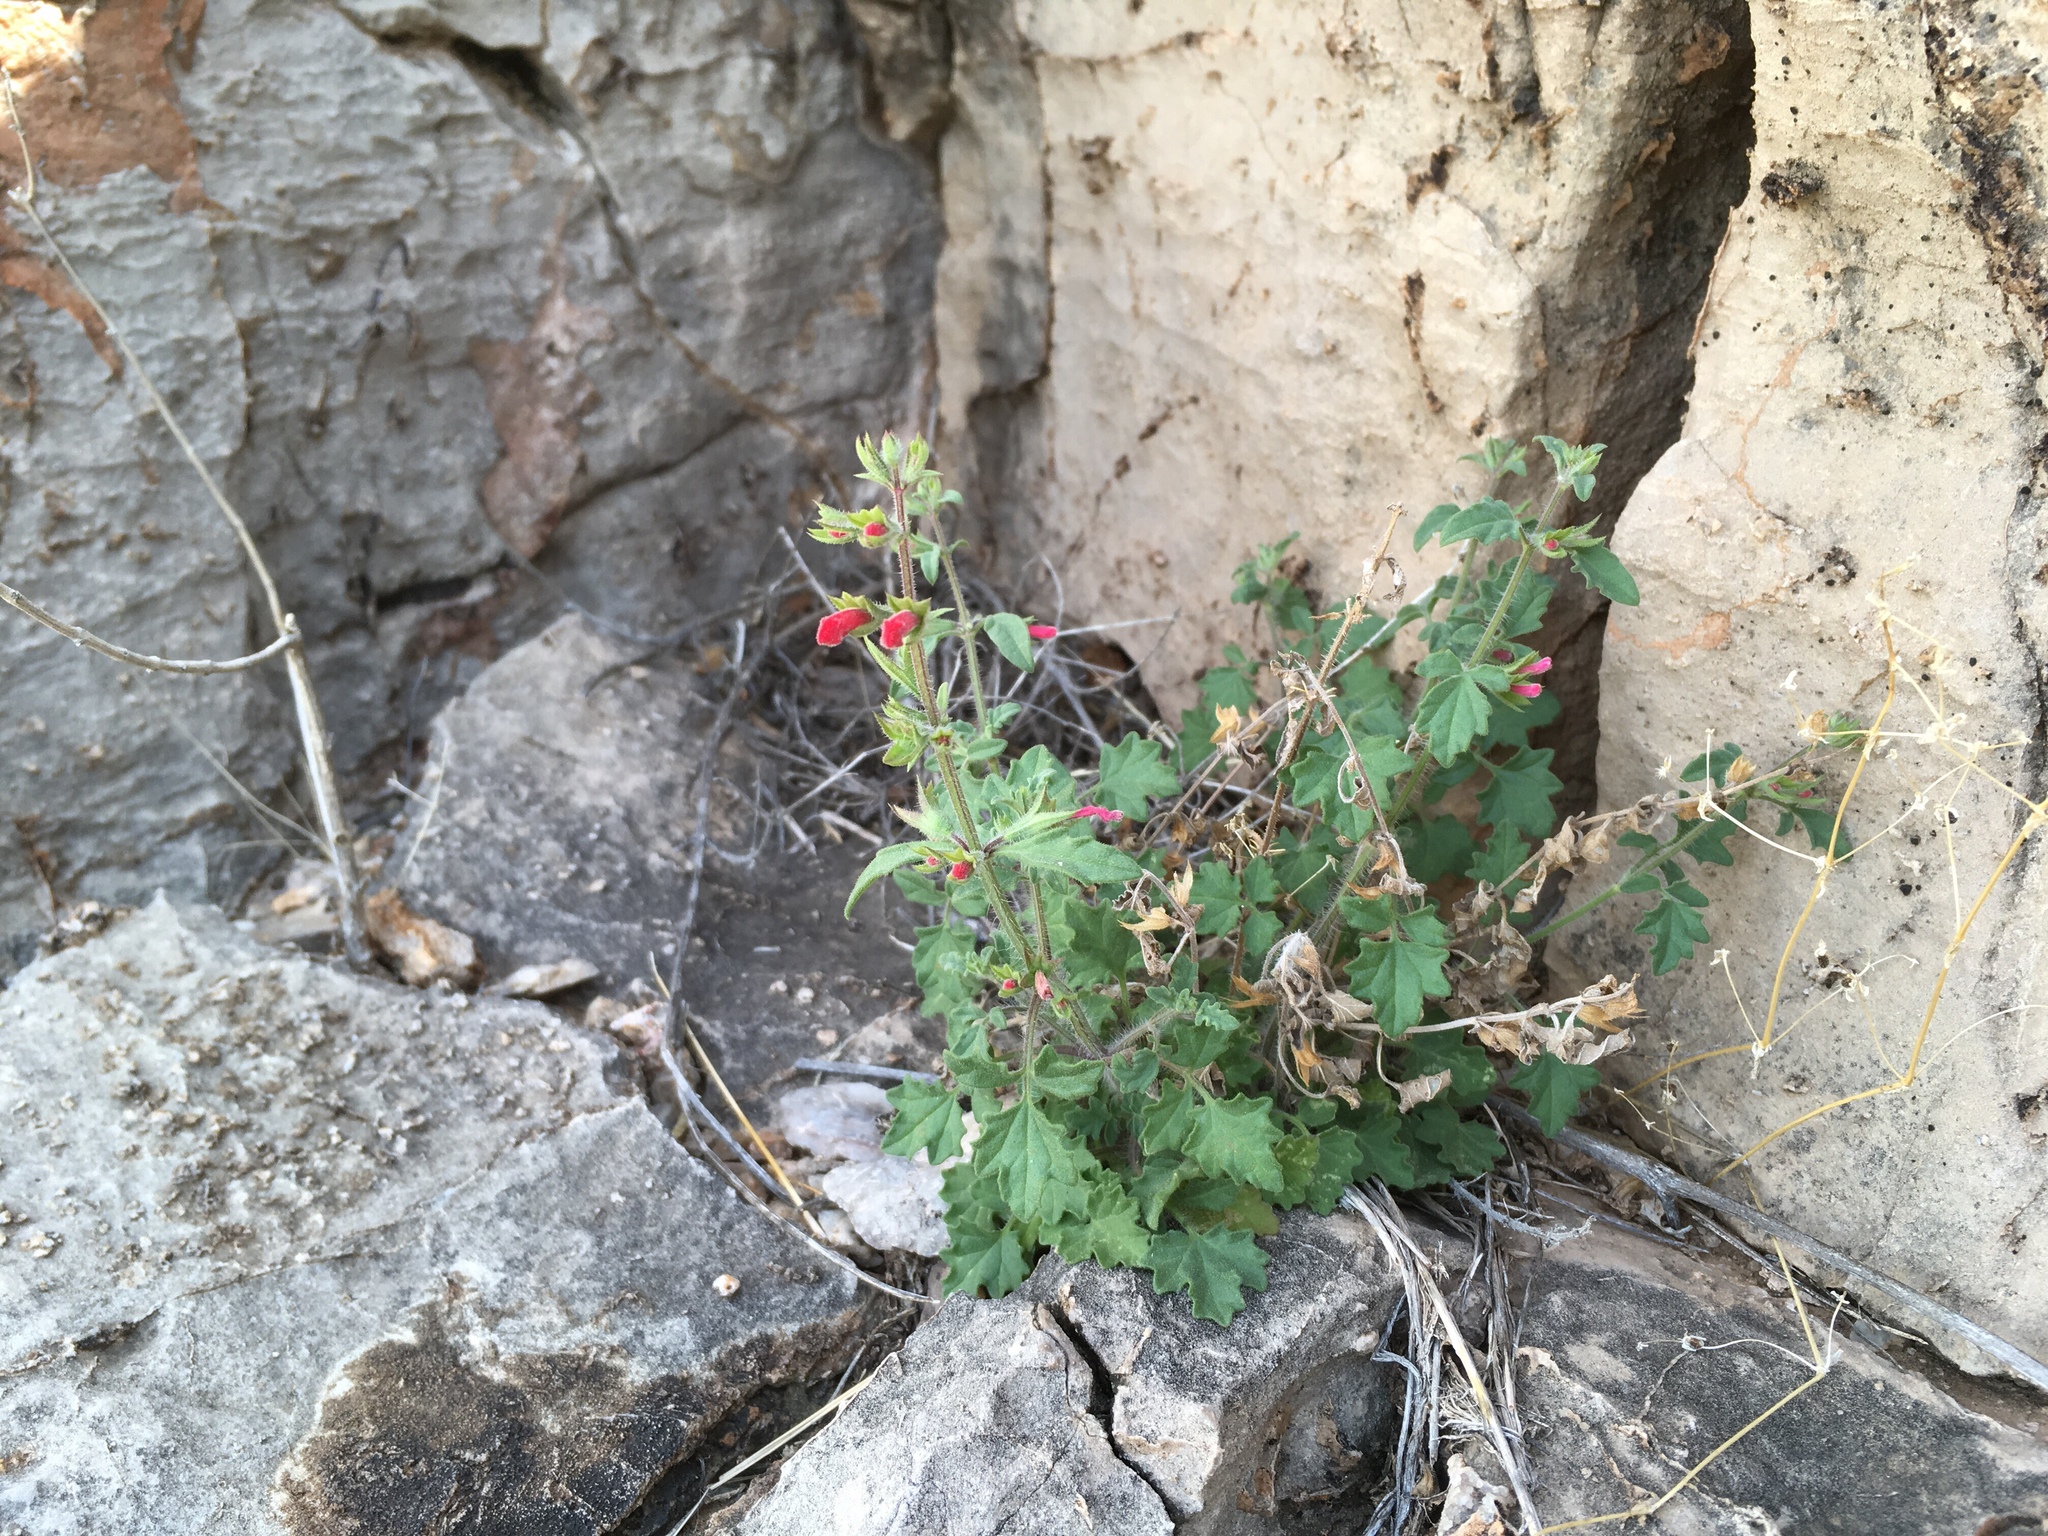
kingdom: Plantae
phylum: Tracheophyta
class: Magnoliopsida
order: Lamiales
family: Lamiaceae
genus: Salvia
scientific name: Salvia henryi
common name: Henry's sage
